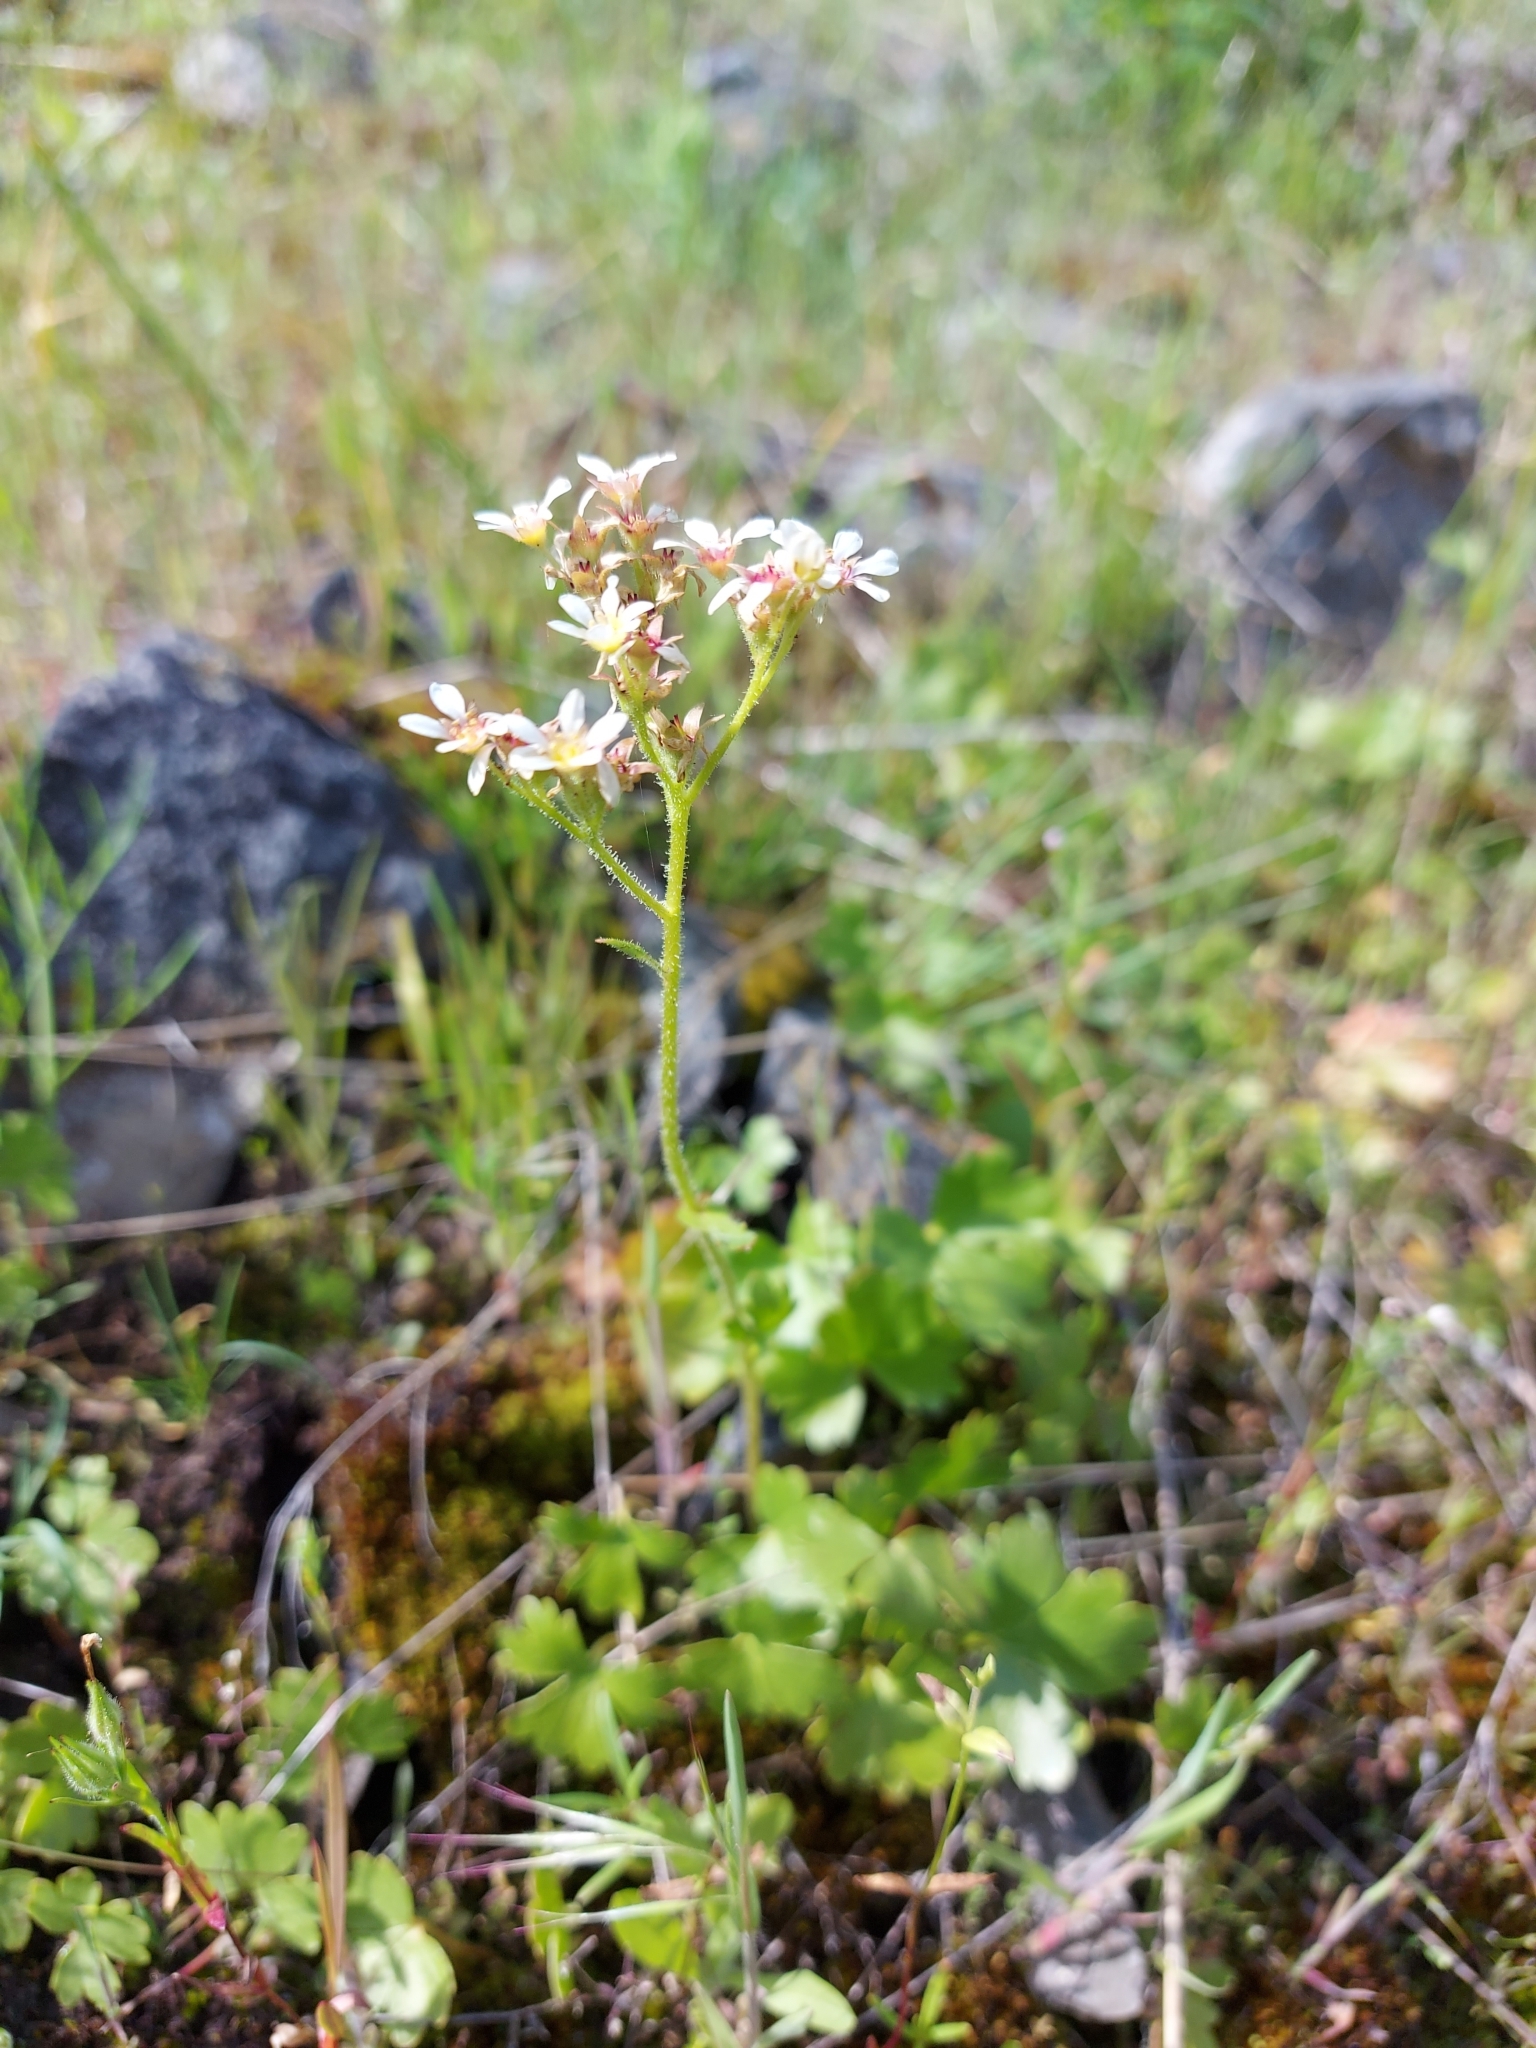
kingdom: Plantae
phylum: Tracheophyta
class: Magnoliopsida
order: Saxifragales
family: Saxifragaceae
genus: Hemieva
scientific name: Hemieva ranunculifolia
